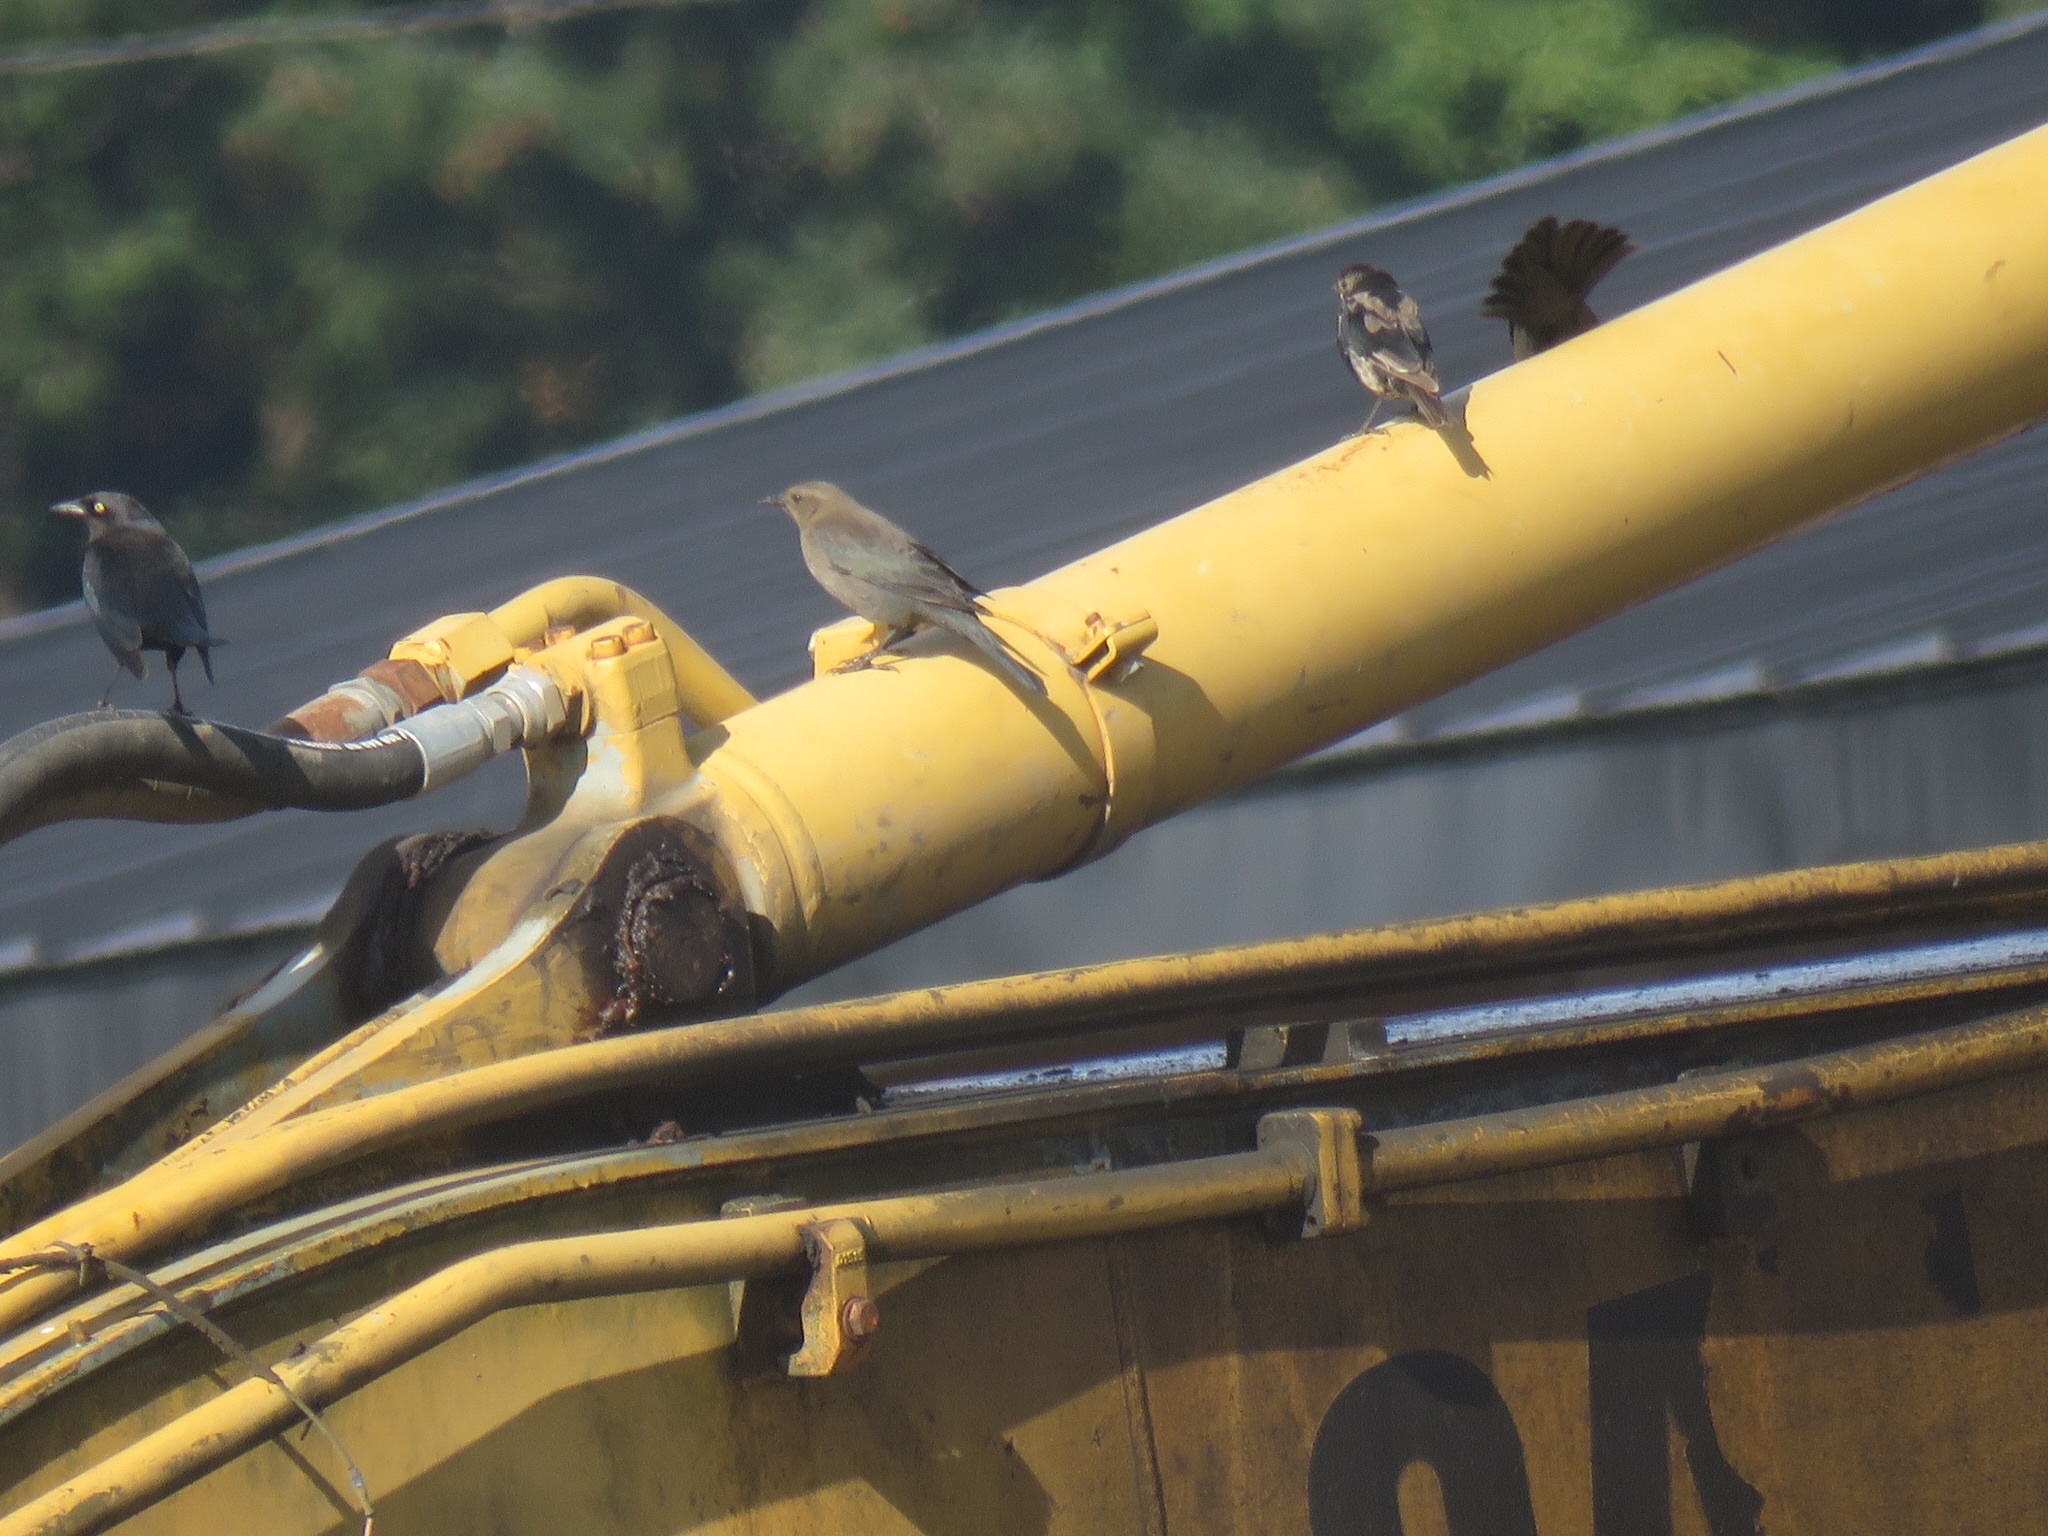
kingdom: Animalia
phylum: Chordata
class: Aves
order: Passeriformes
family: Icteridae
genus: Euphagus
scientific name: Euphagus cyanocephalus
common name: Brewer's blackbird
